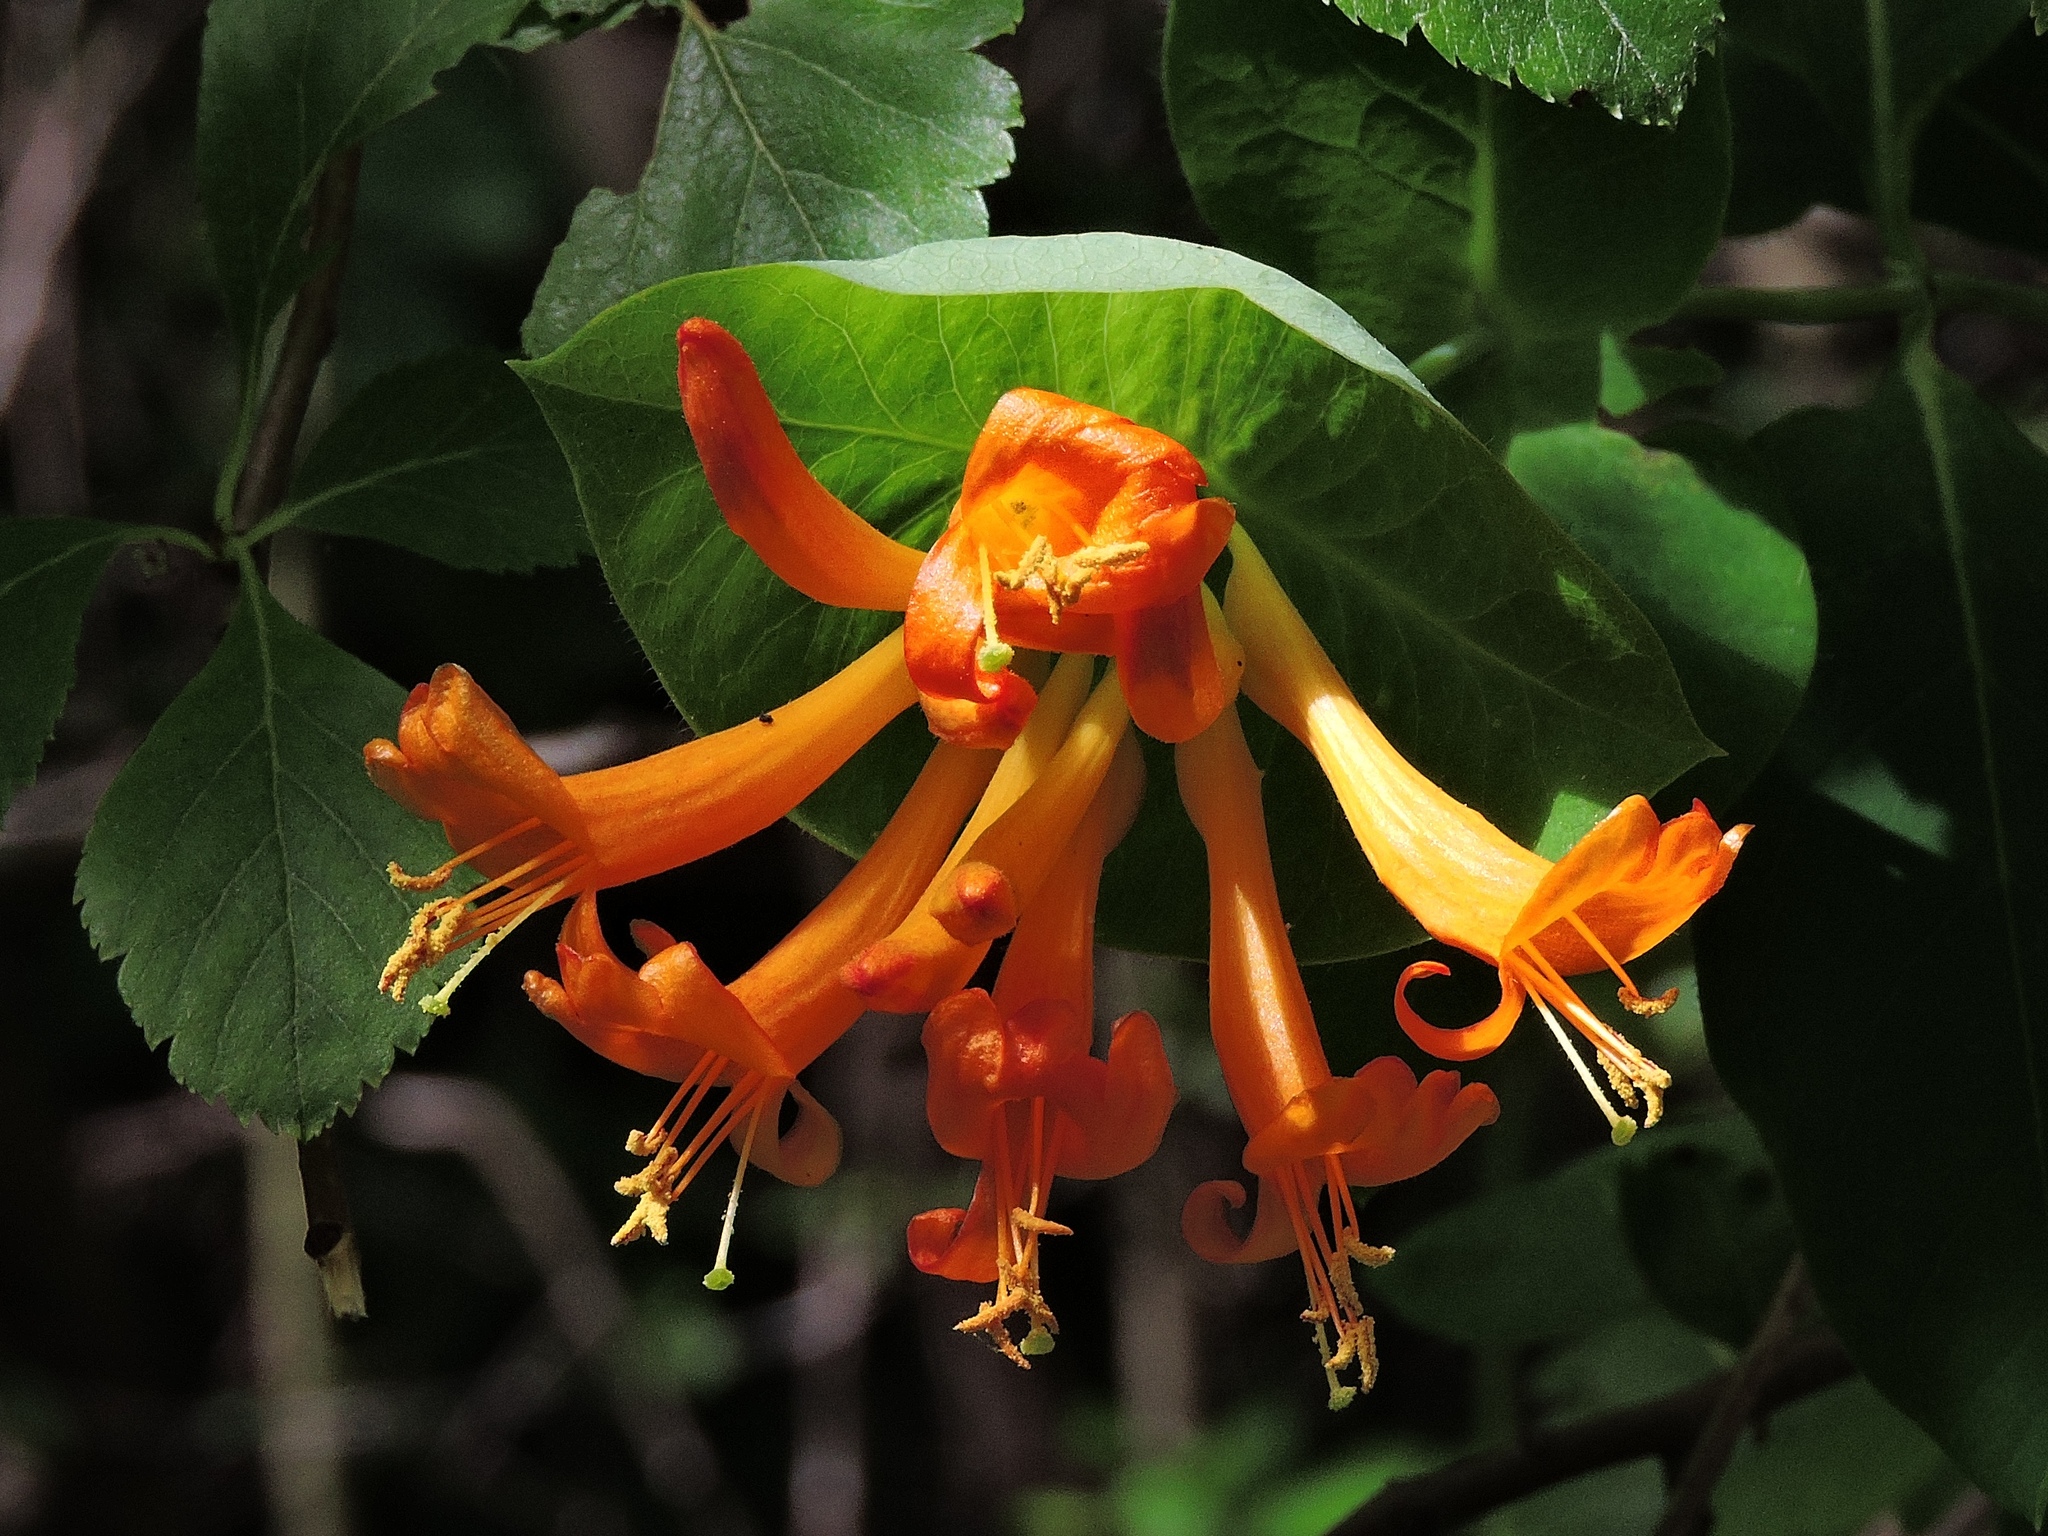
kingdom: Plantae
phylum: Tracheophyta
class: Magnoliopsida
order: Dipsacales
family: Caprifoliaceae
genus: Lonicera
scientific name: Lonicera ciliosa
